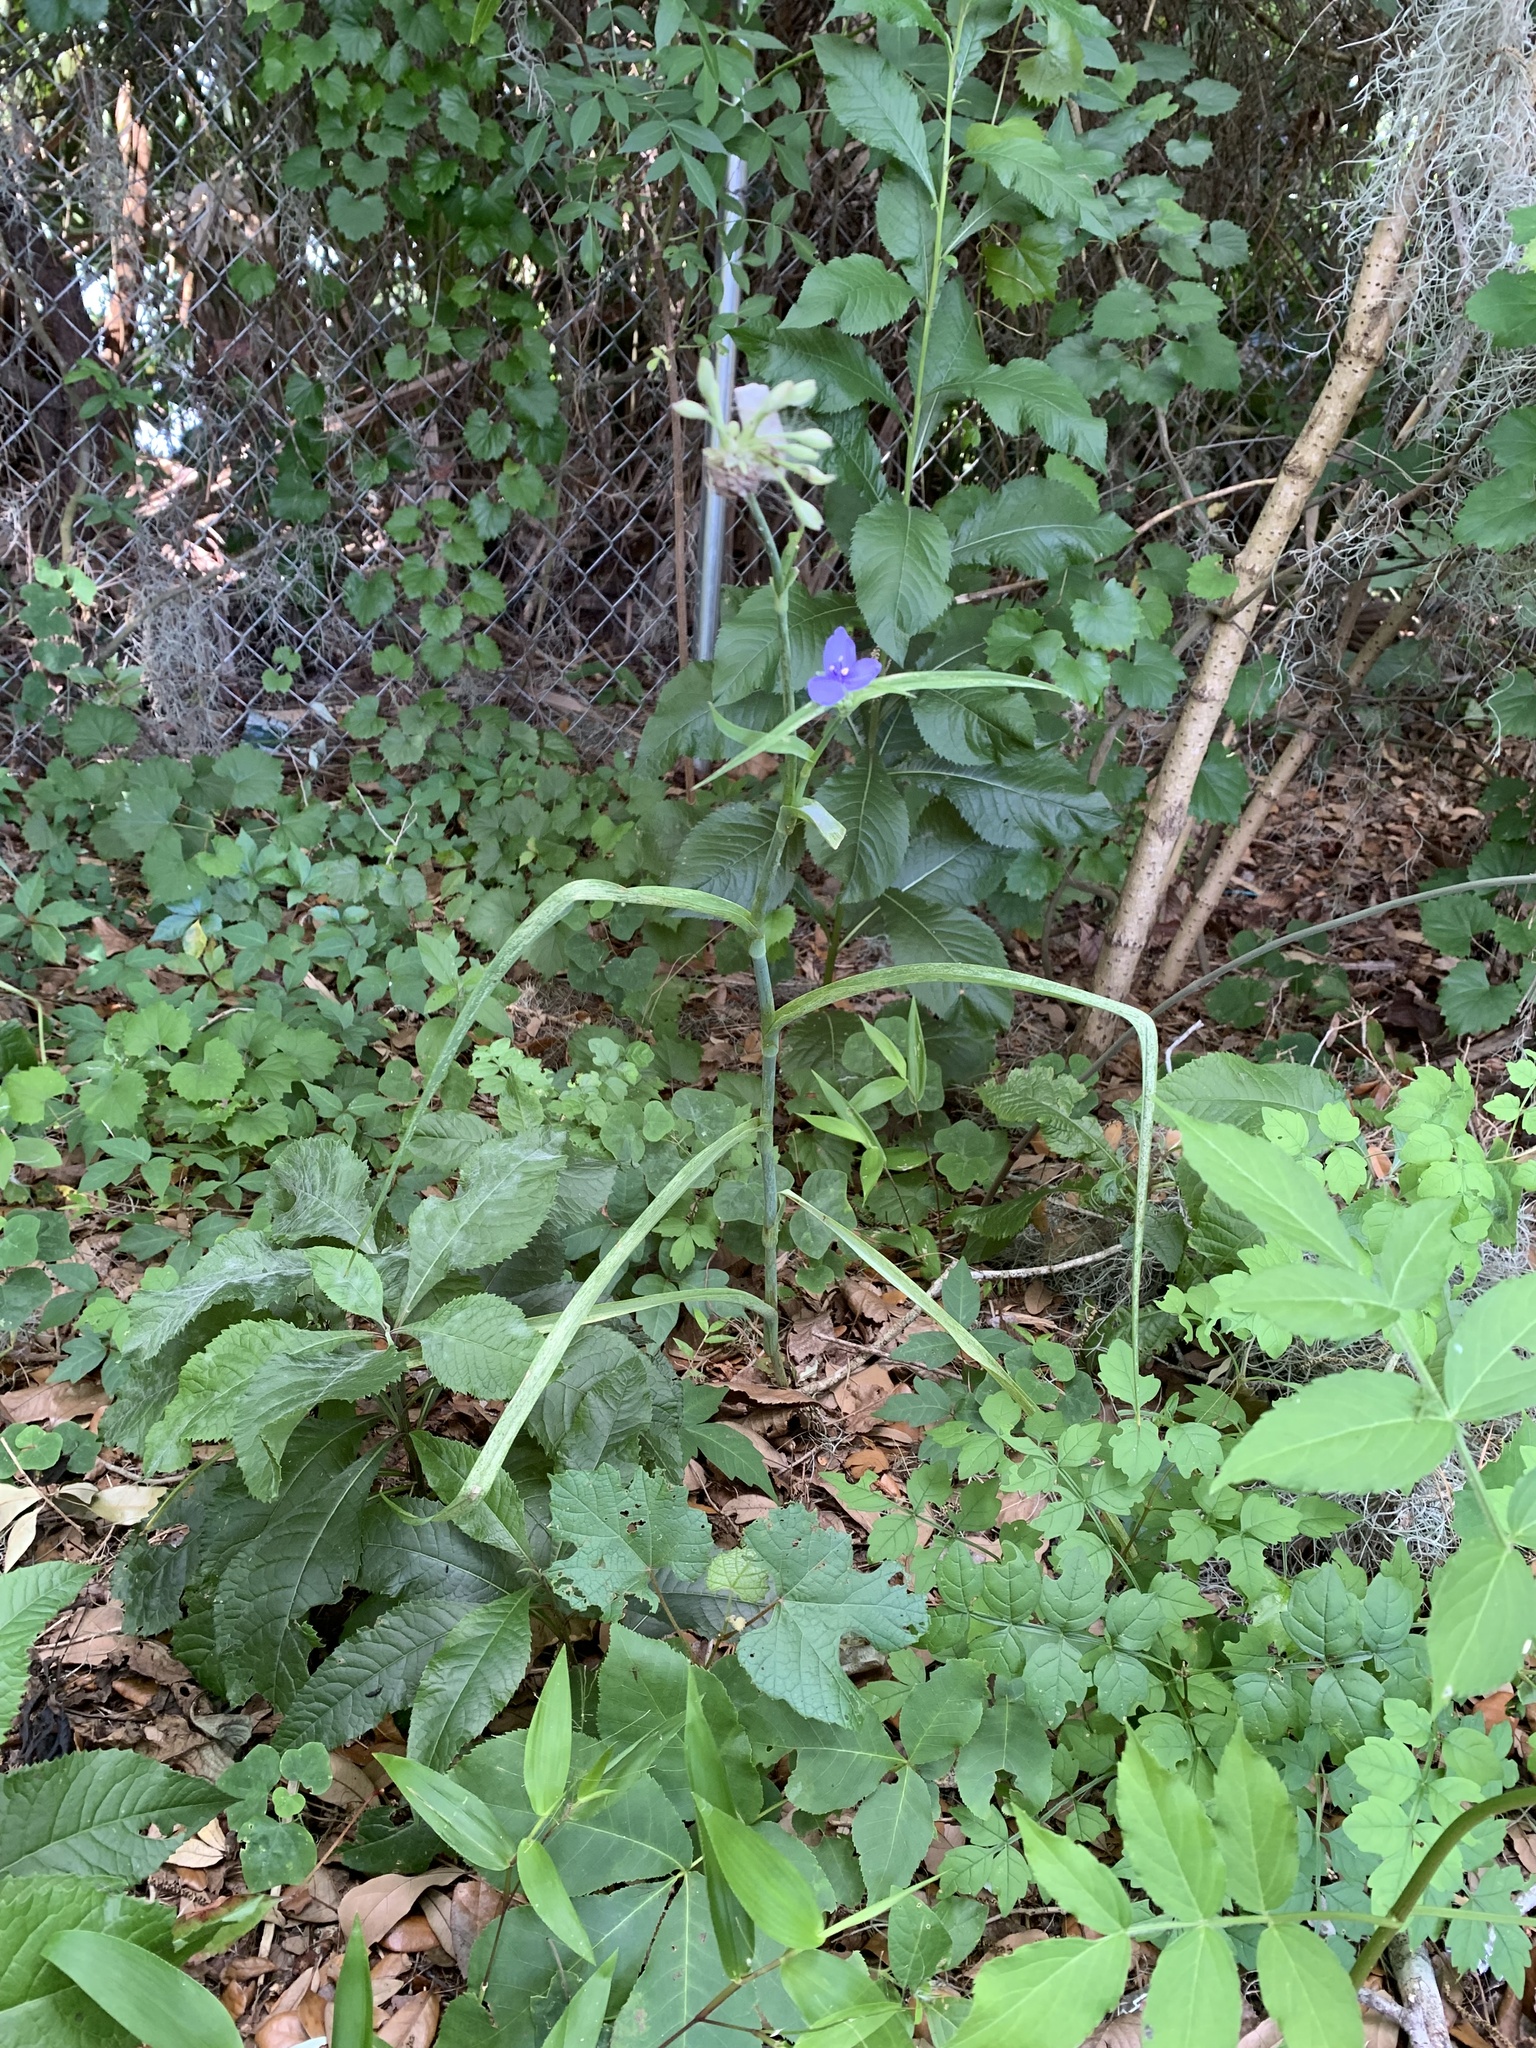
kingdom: Plantae
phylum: Tracheophyta
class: Liliopsida
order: Commelinales
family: Commelinaceae
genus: Tradescantia
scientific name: Tradescantia ohiensis
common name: Ohio spiderwort
